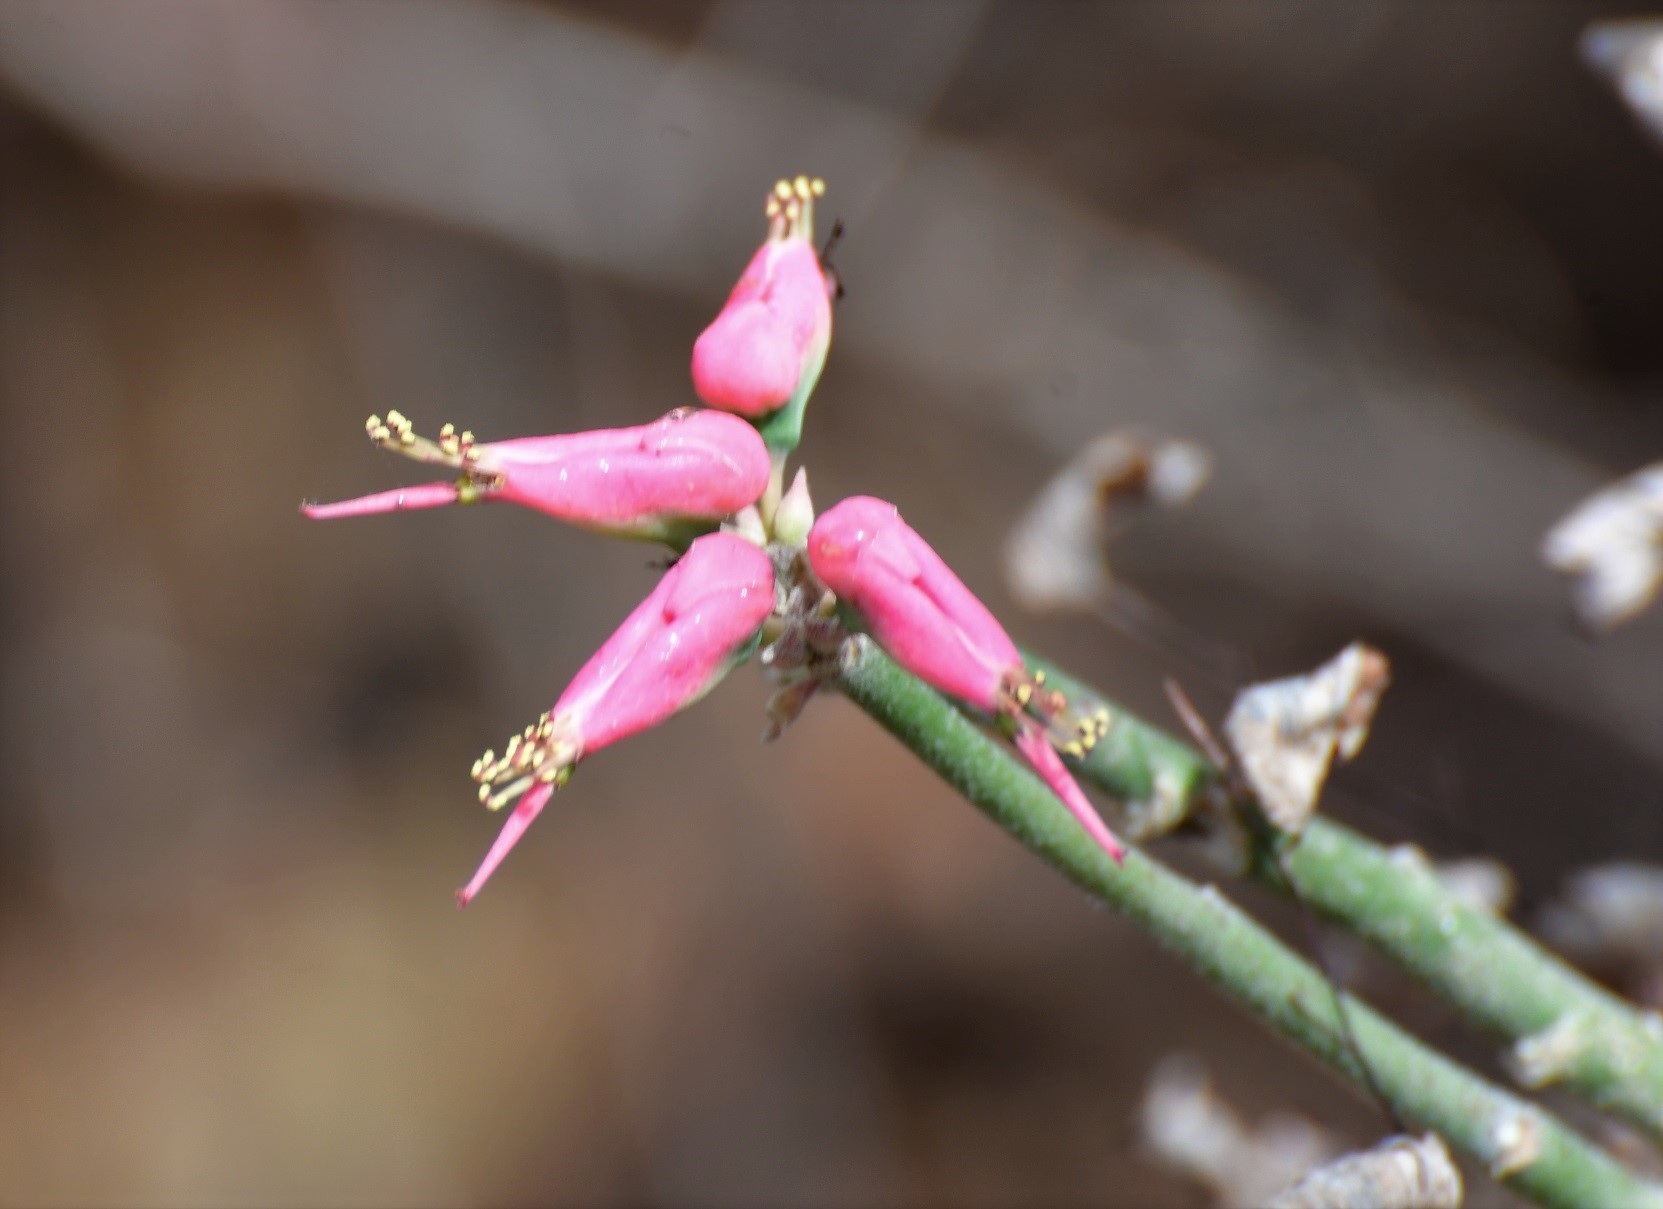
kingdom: Plantae
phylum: Tracheophyta
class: Magnoliopsida
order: Malpighiales
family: Euphorbiaceae
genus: Euphorbia
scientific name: Euphorbia tithymaloides
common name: Slipperplant
